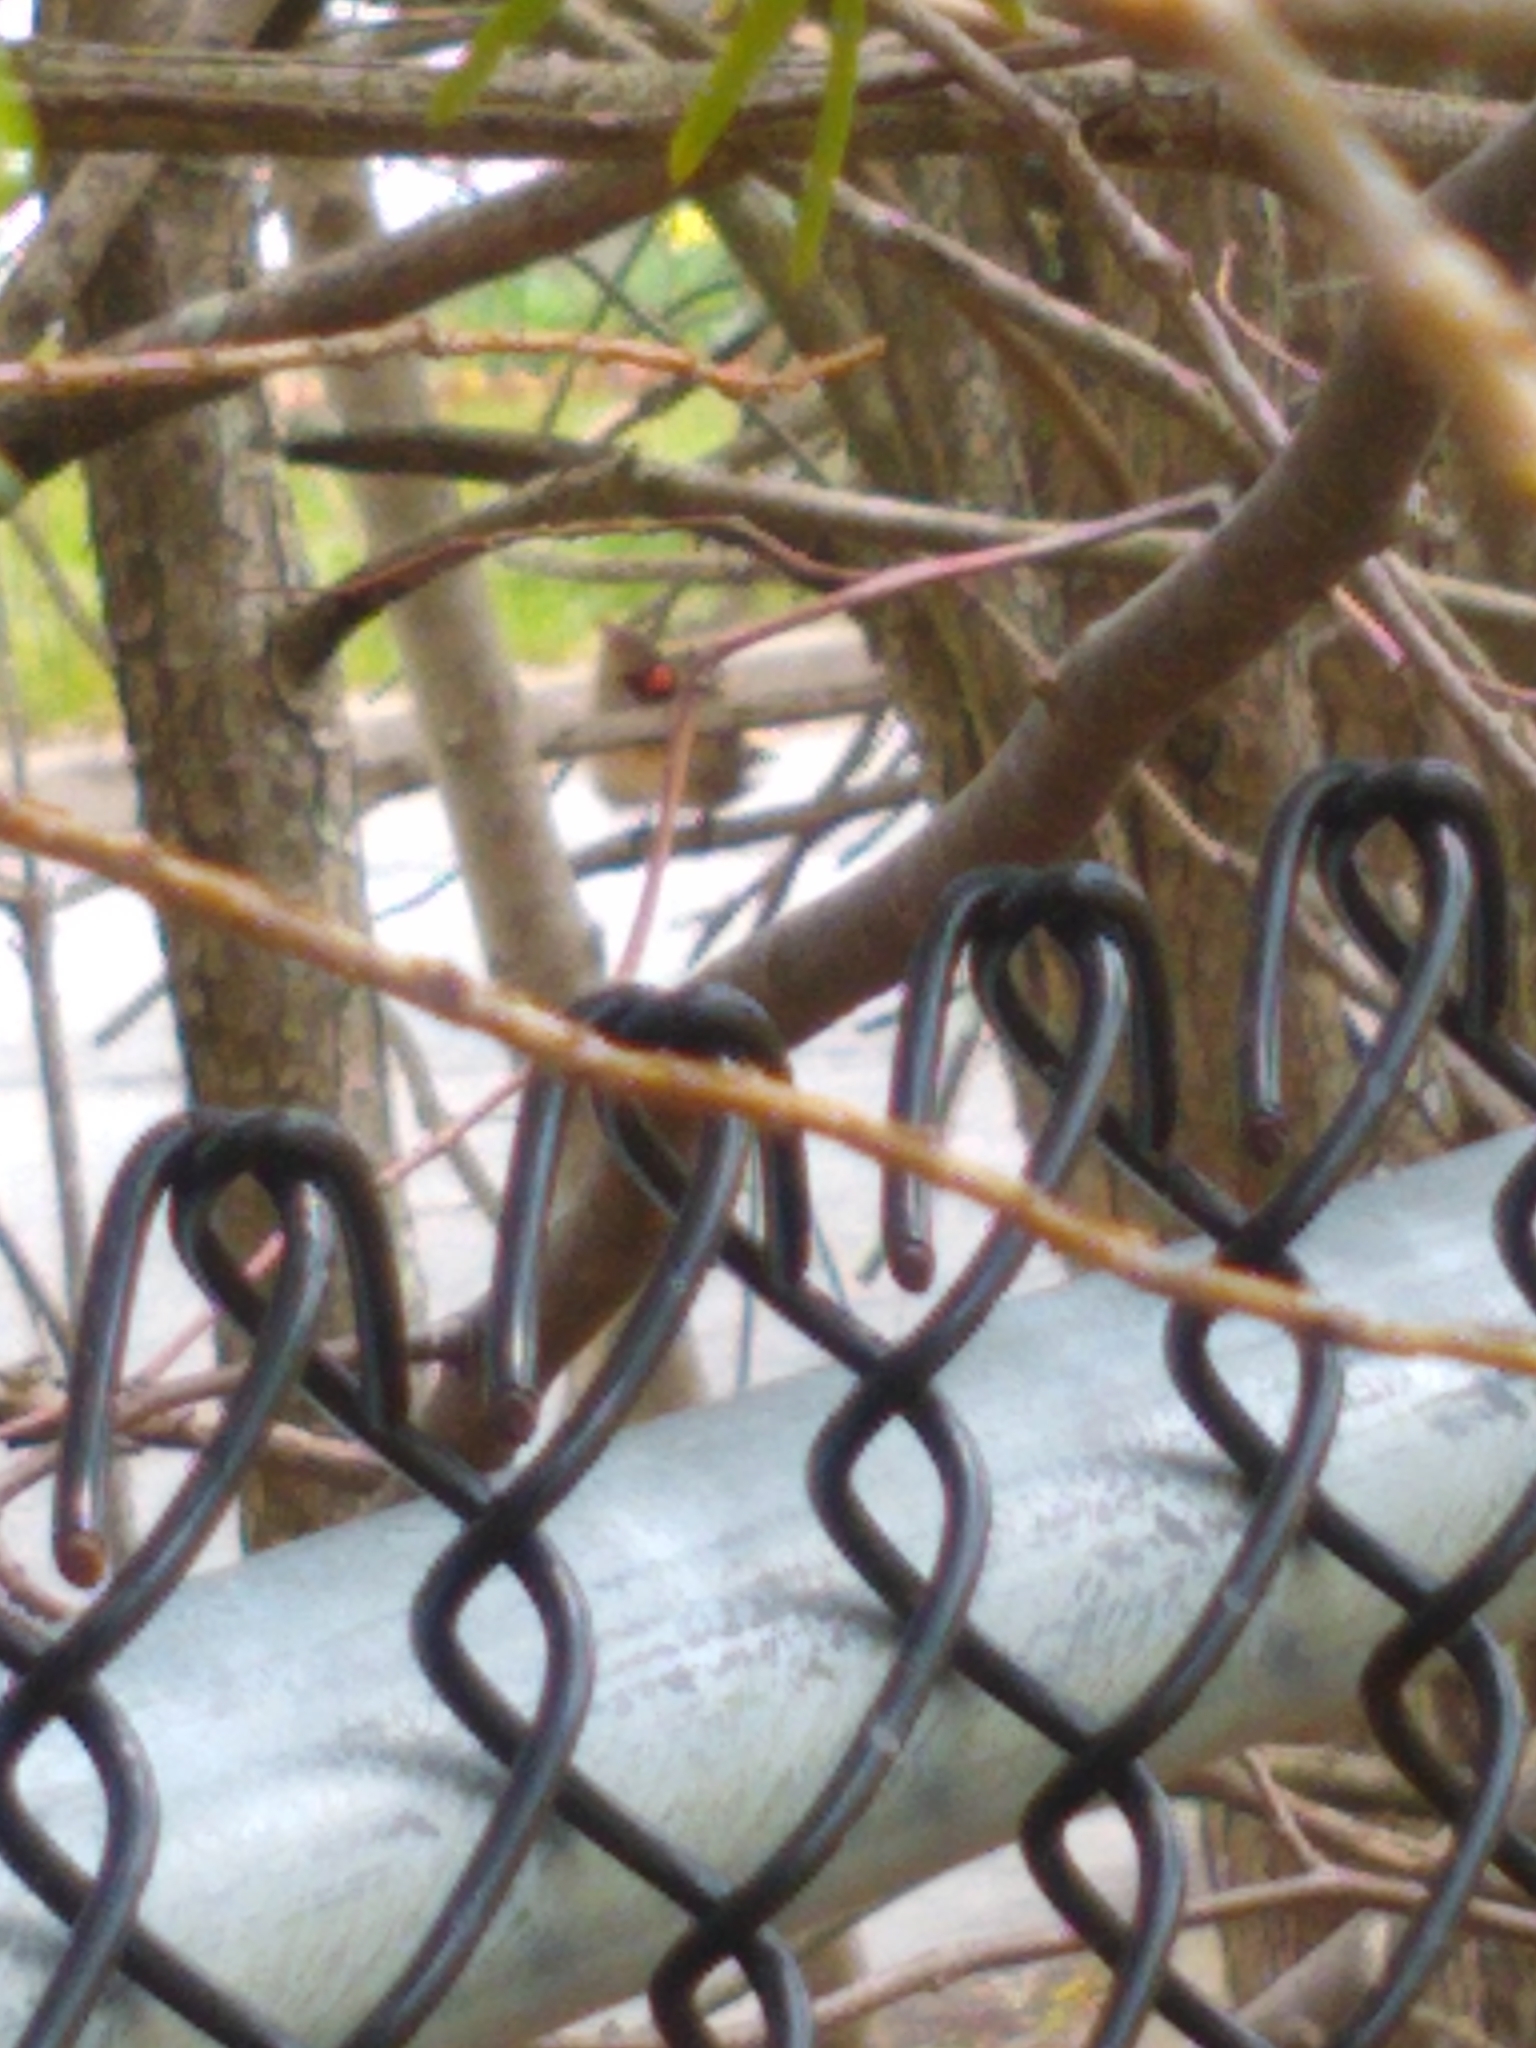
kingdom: Animalia
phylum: Chordata
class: Aves
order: Passeriformes
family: Cardinalidae
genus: Cardinalis
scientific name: Cardinalis cardinalis
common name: Northern cardinal
